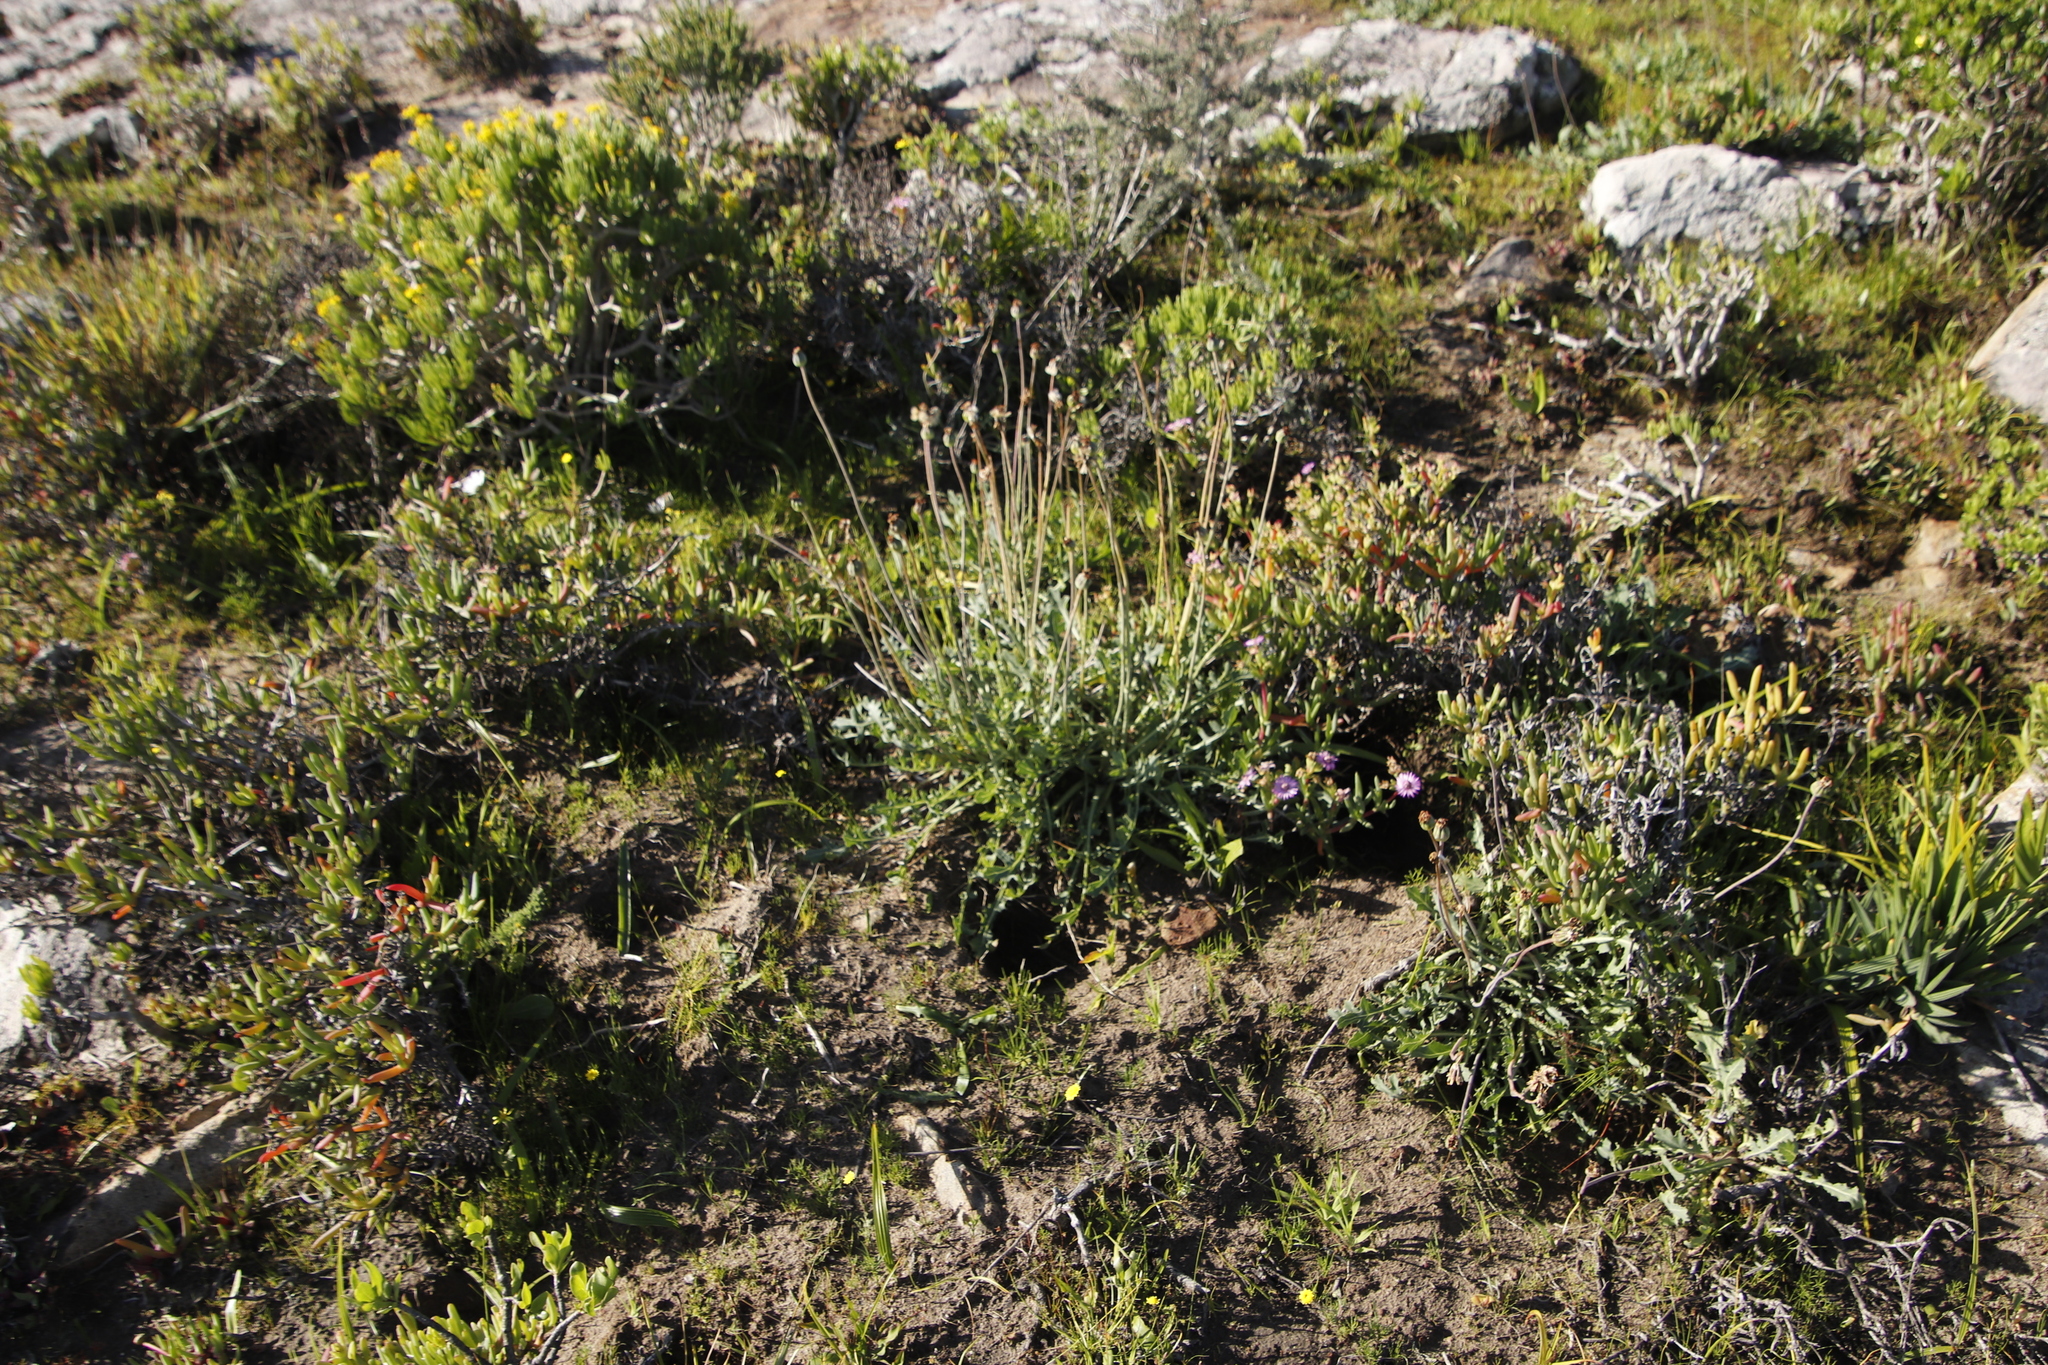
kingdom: Plantae
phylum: Tracheophyta
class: Magnoliopsida
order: Asterales
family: Asteraceae
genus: Othonna
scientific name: Othonna rotundiloba
